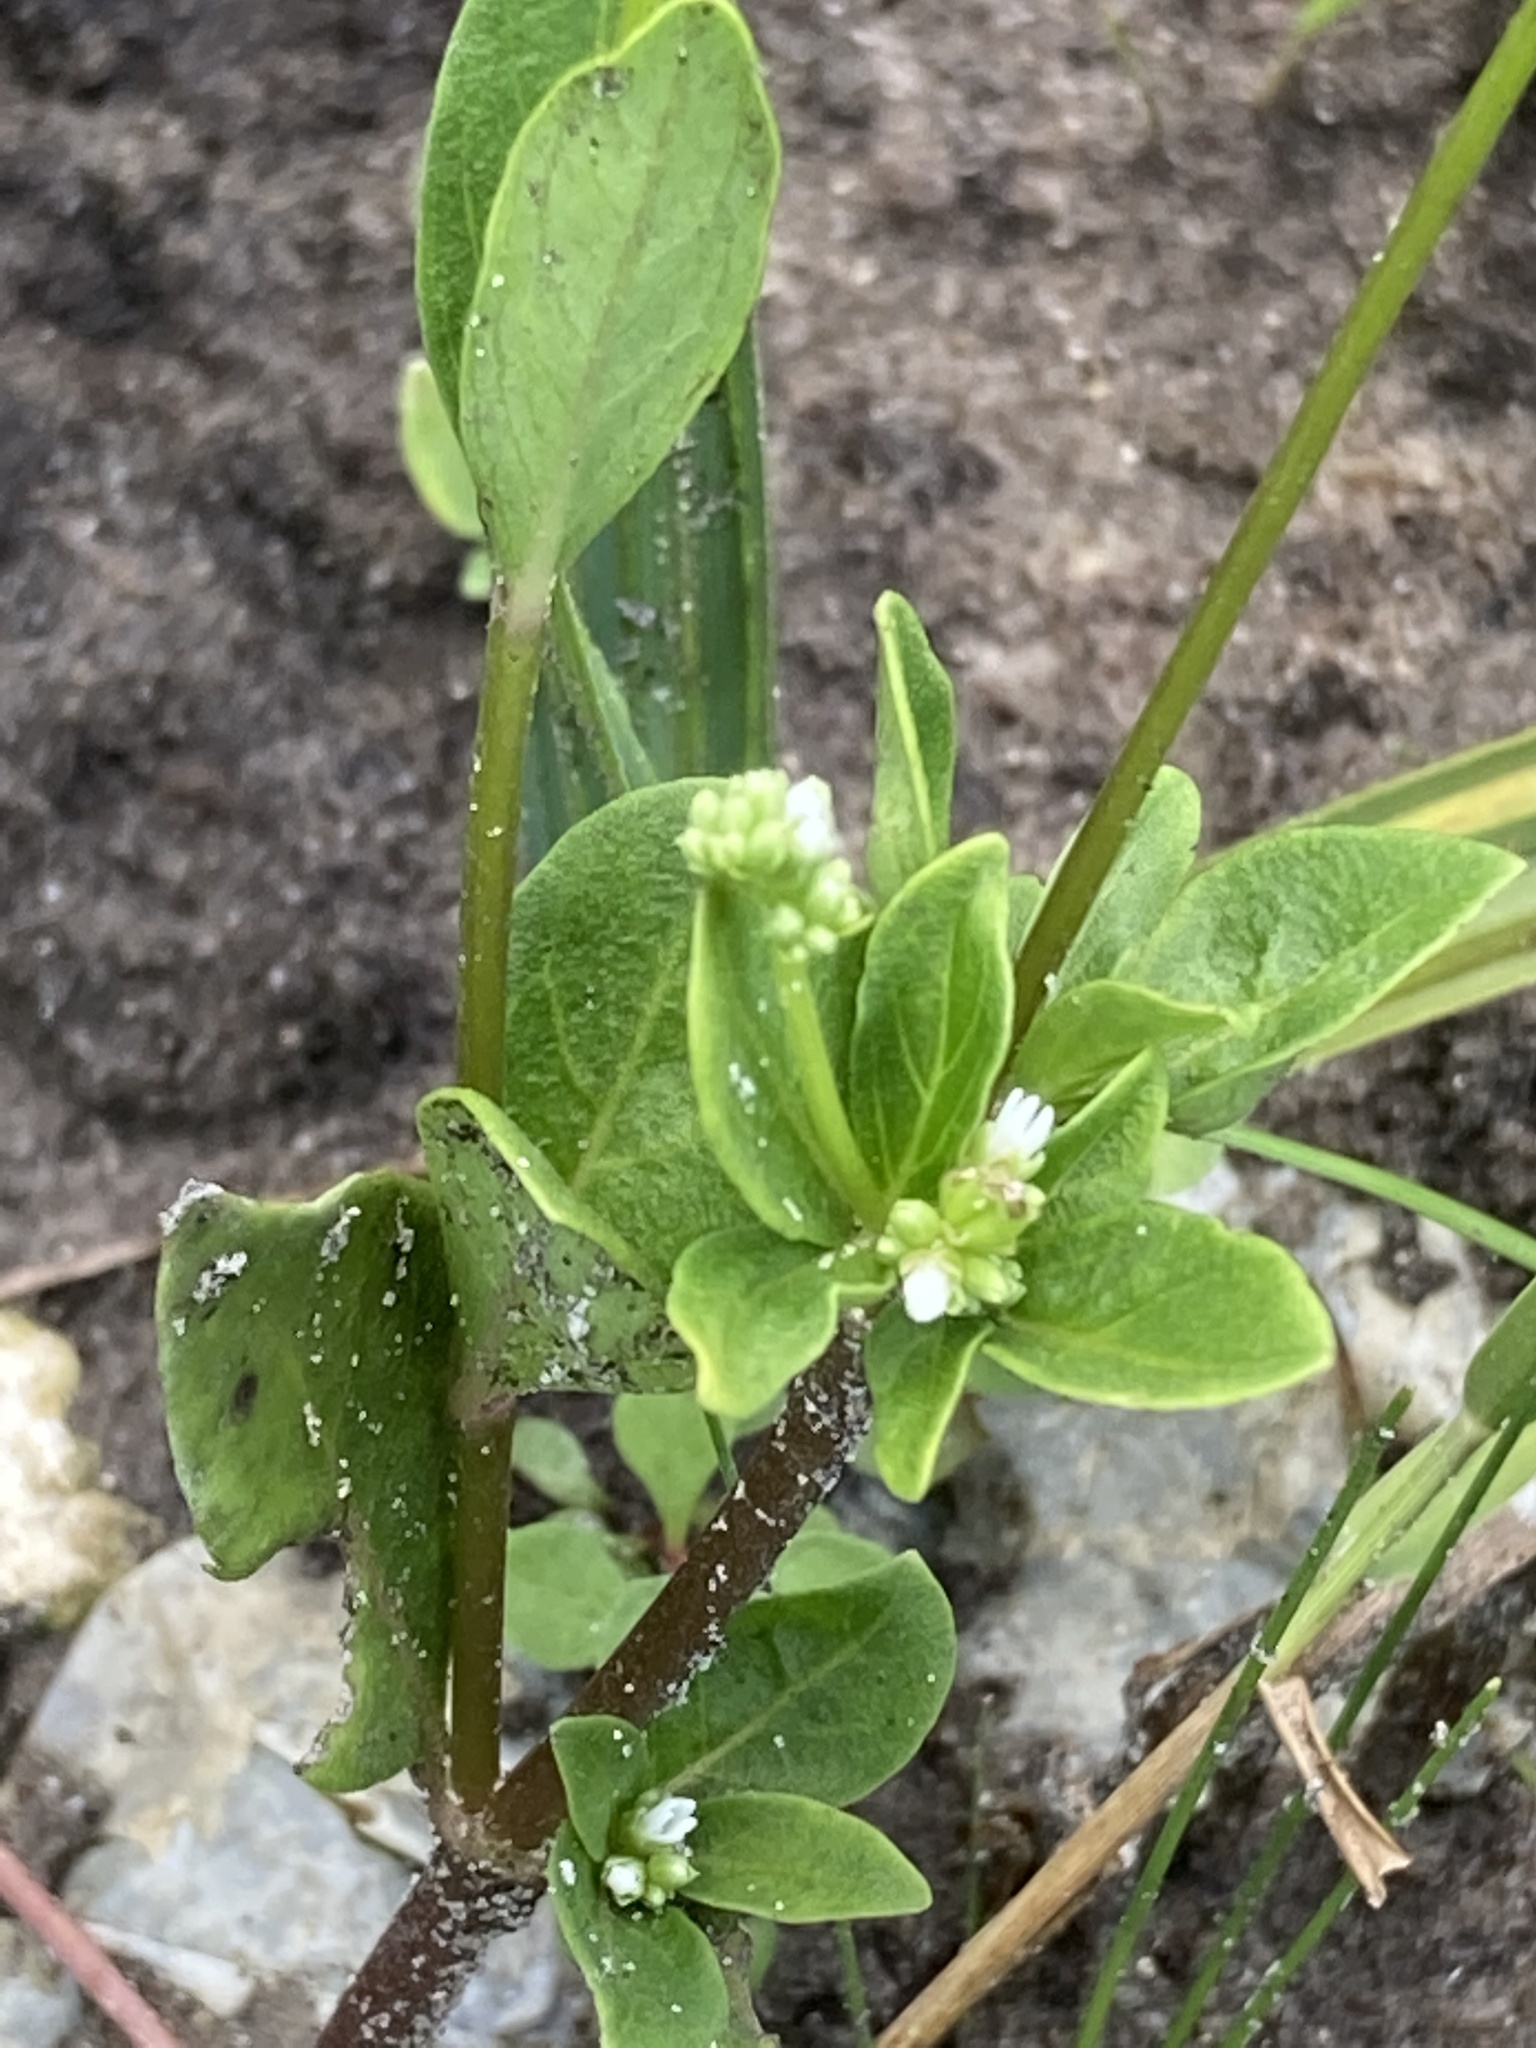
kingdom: Plantae
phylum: Tracheophyta
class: Magnoliopsida
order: Gentianales
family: Loganiaceae
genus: Mitreola
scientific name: Mitreola petiolata
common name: Lax hornpod
